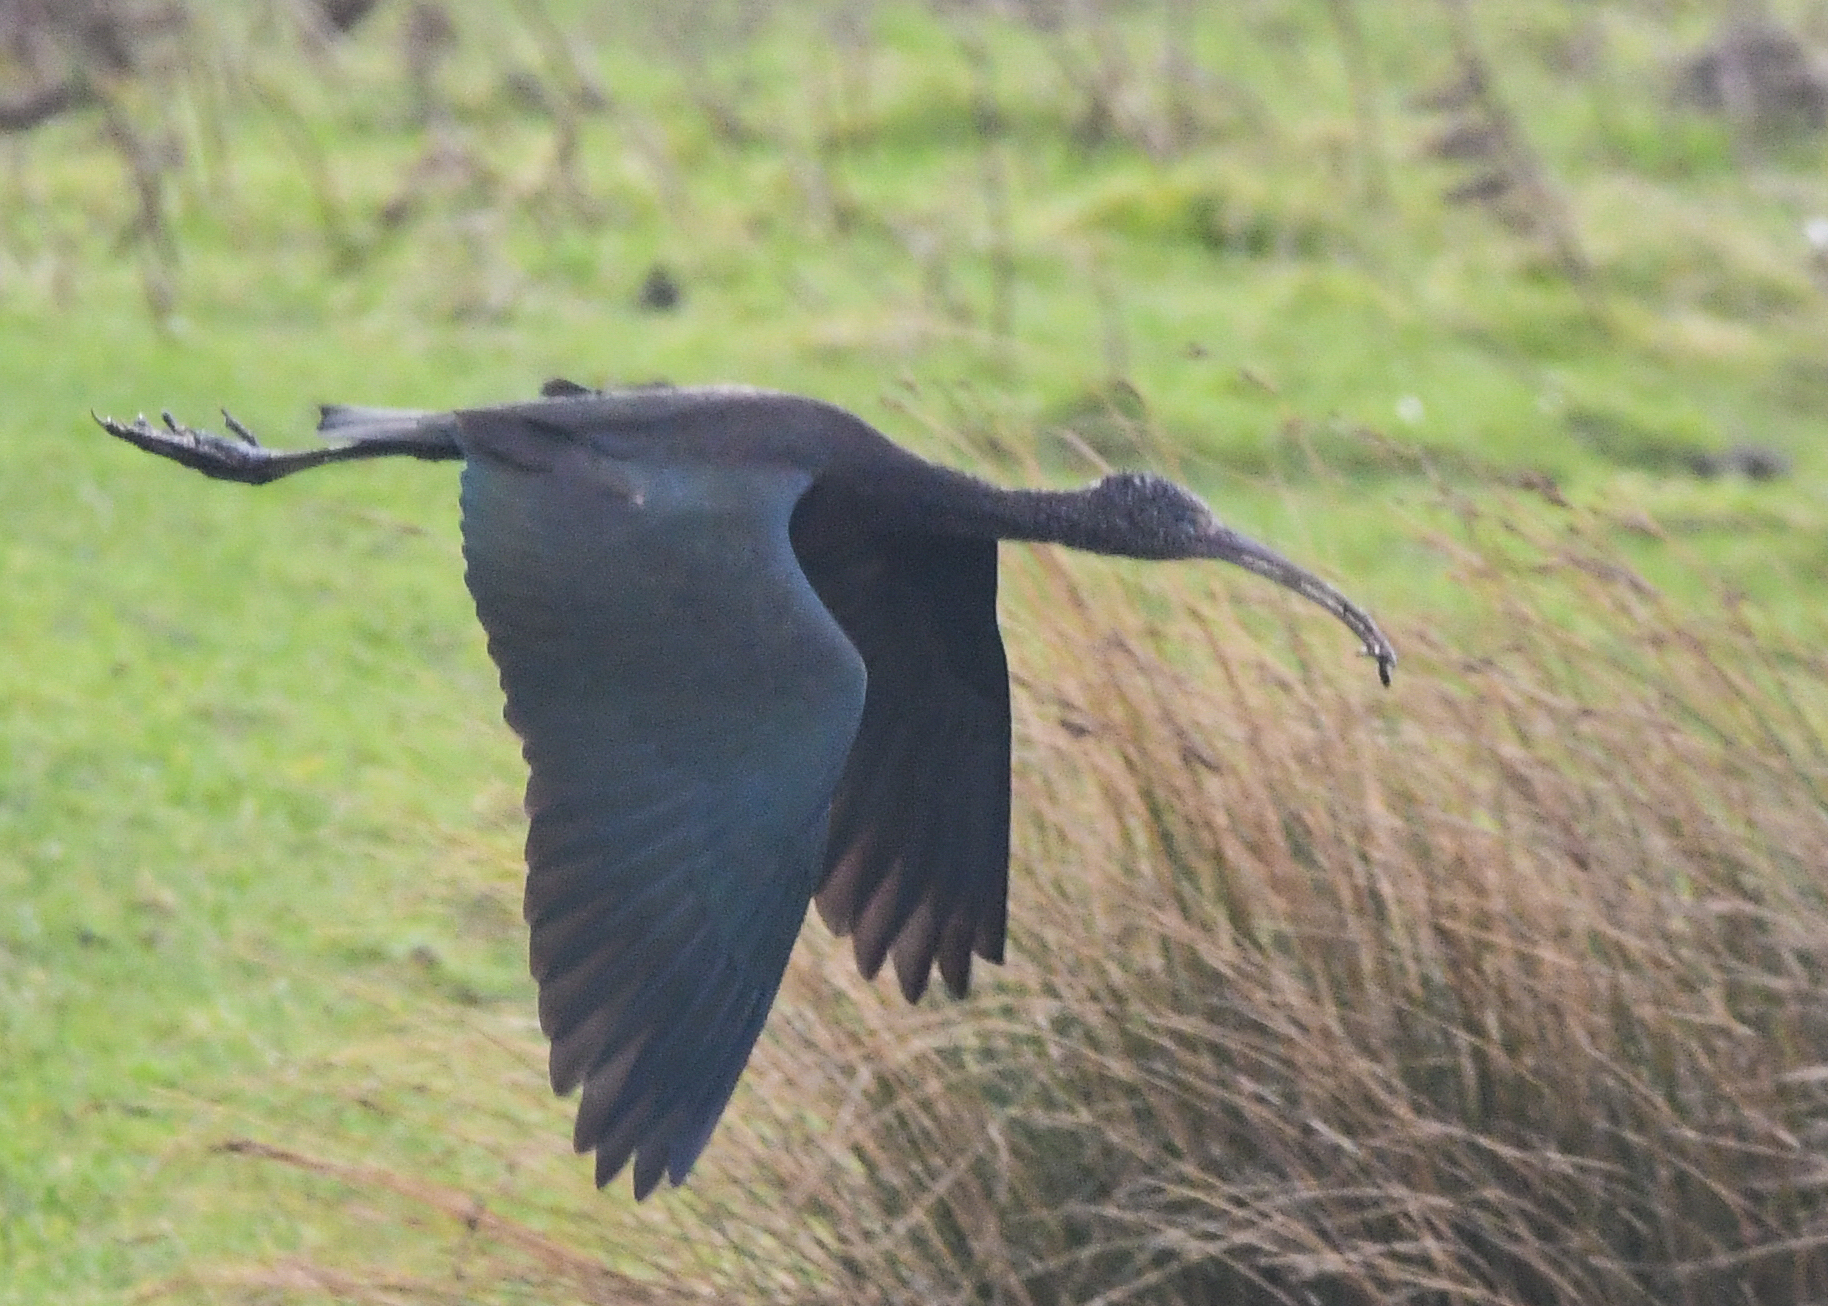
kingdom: Animalia
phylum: Chordata
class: Aves
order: Pelecaniformes
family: Threskiornithidae
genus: Plegadis
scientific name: Plegadis falcinellus
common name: Glossy ibis
